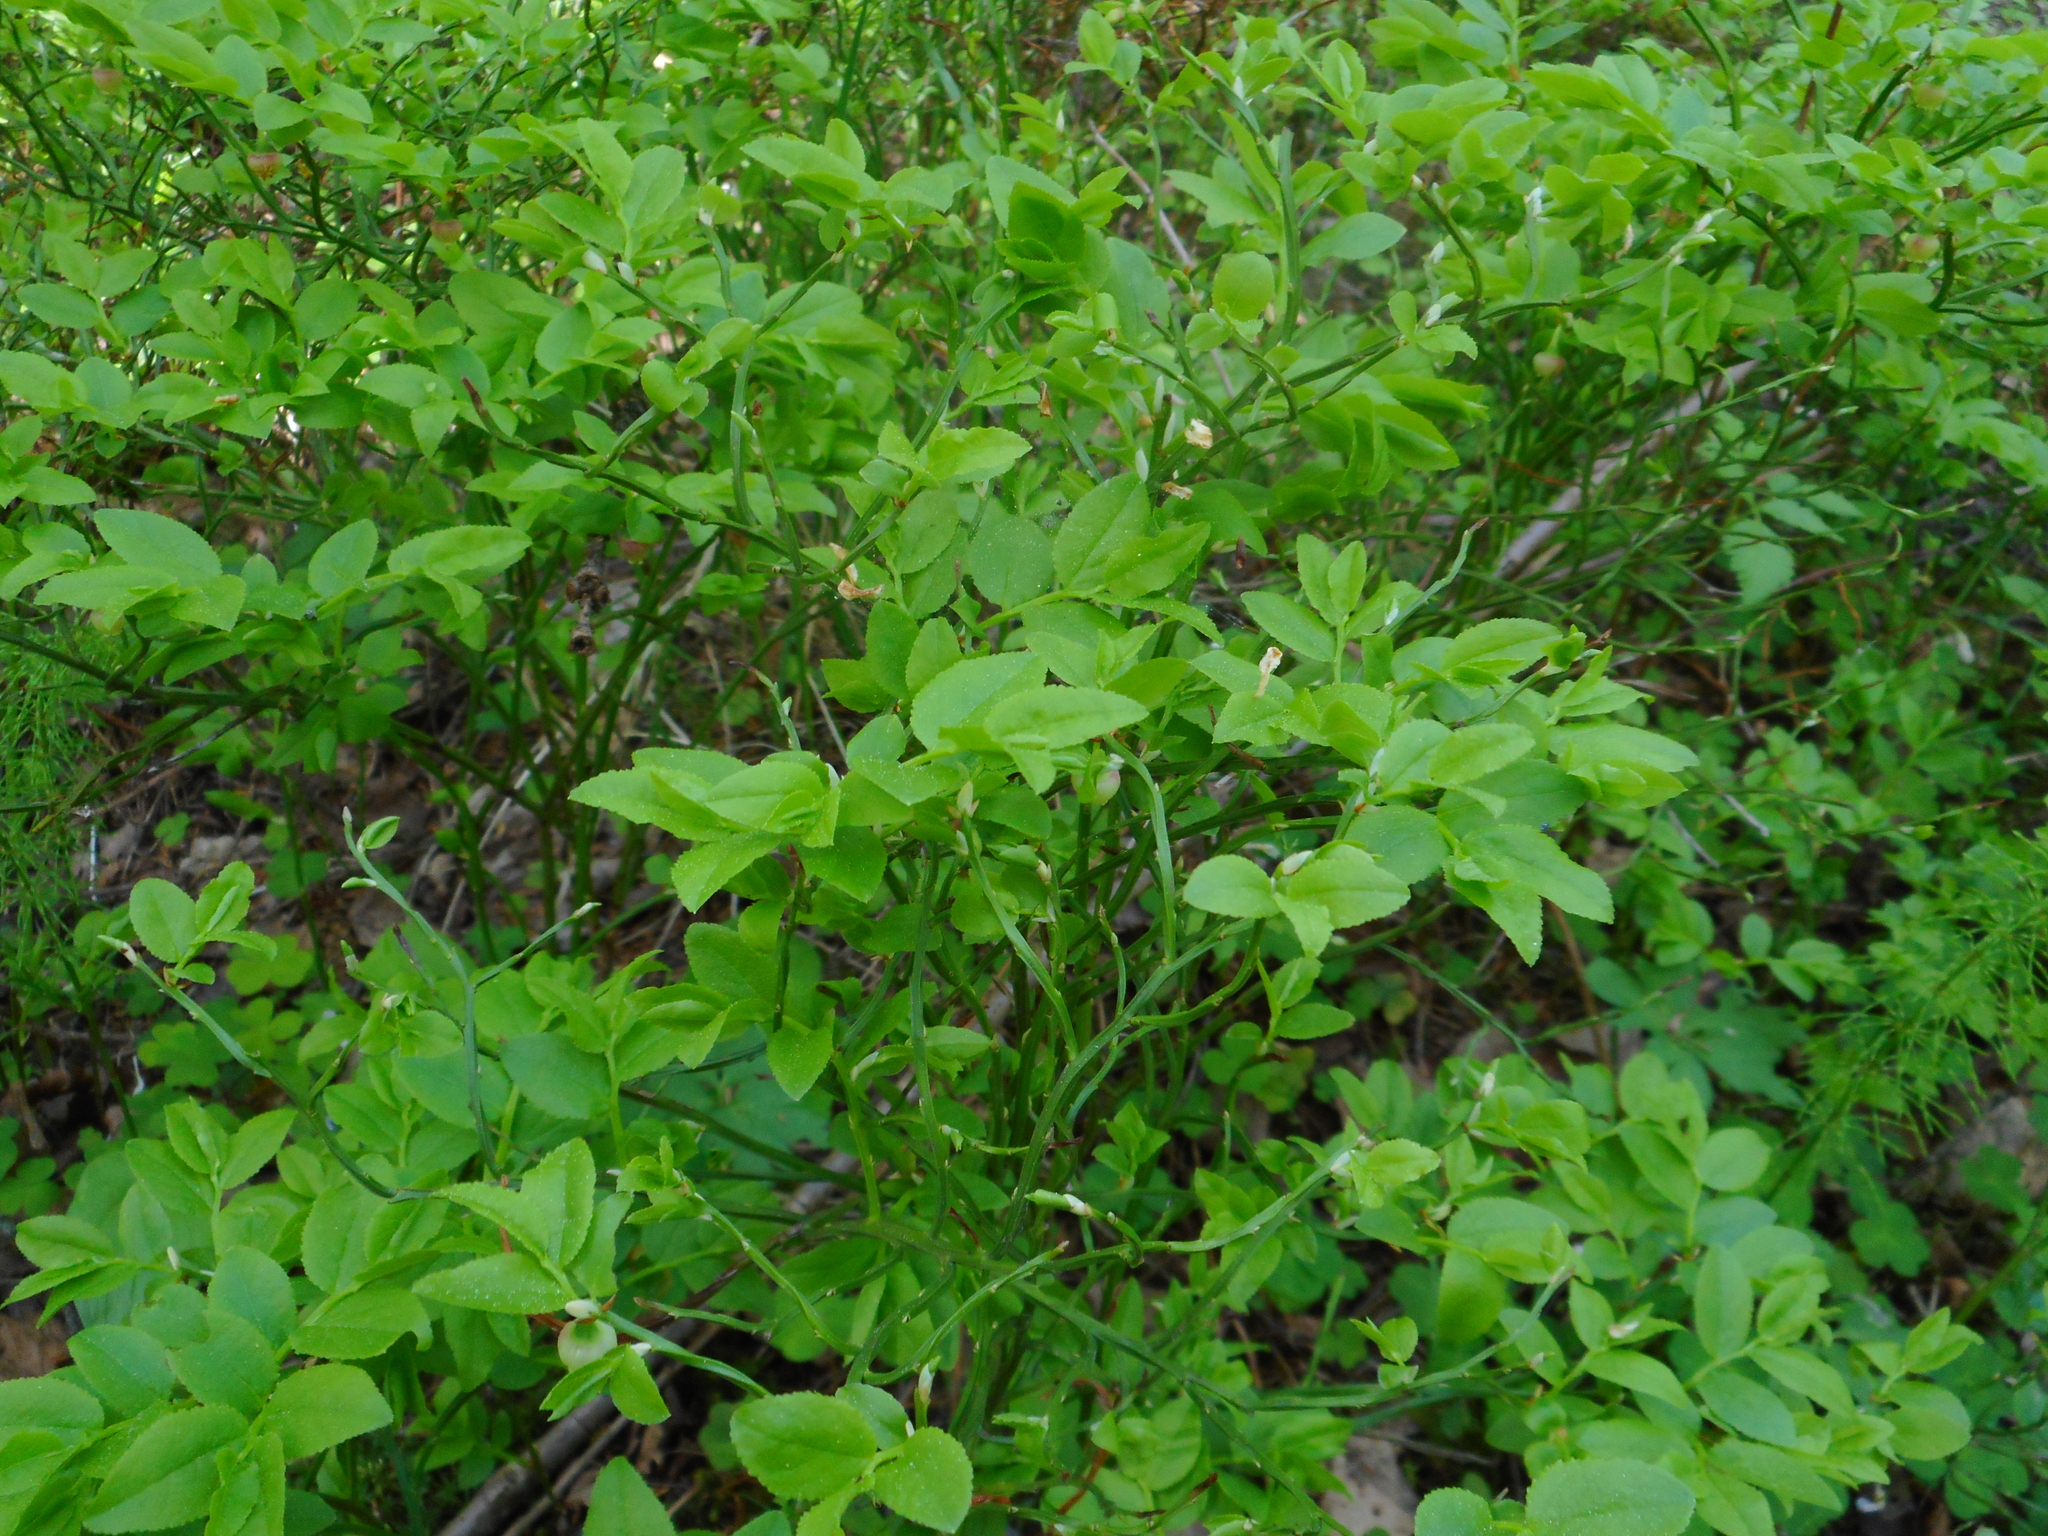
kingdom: Plantae
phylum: Tracheophyta
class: Magnoliopsida
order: Ericales
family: Ericaceae
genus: Vaccinium
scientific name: Vaccinium myrtillus
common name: Bilberry
